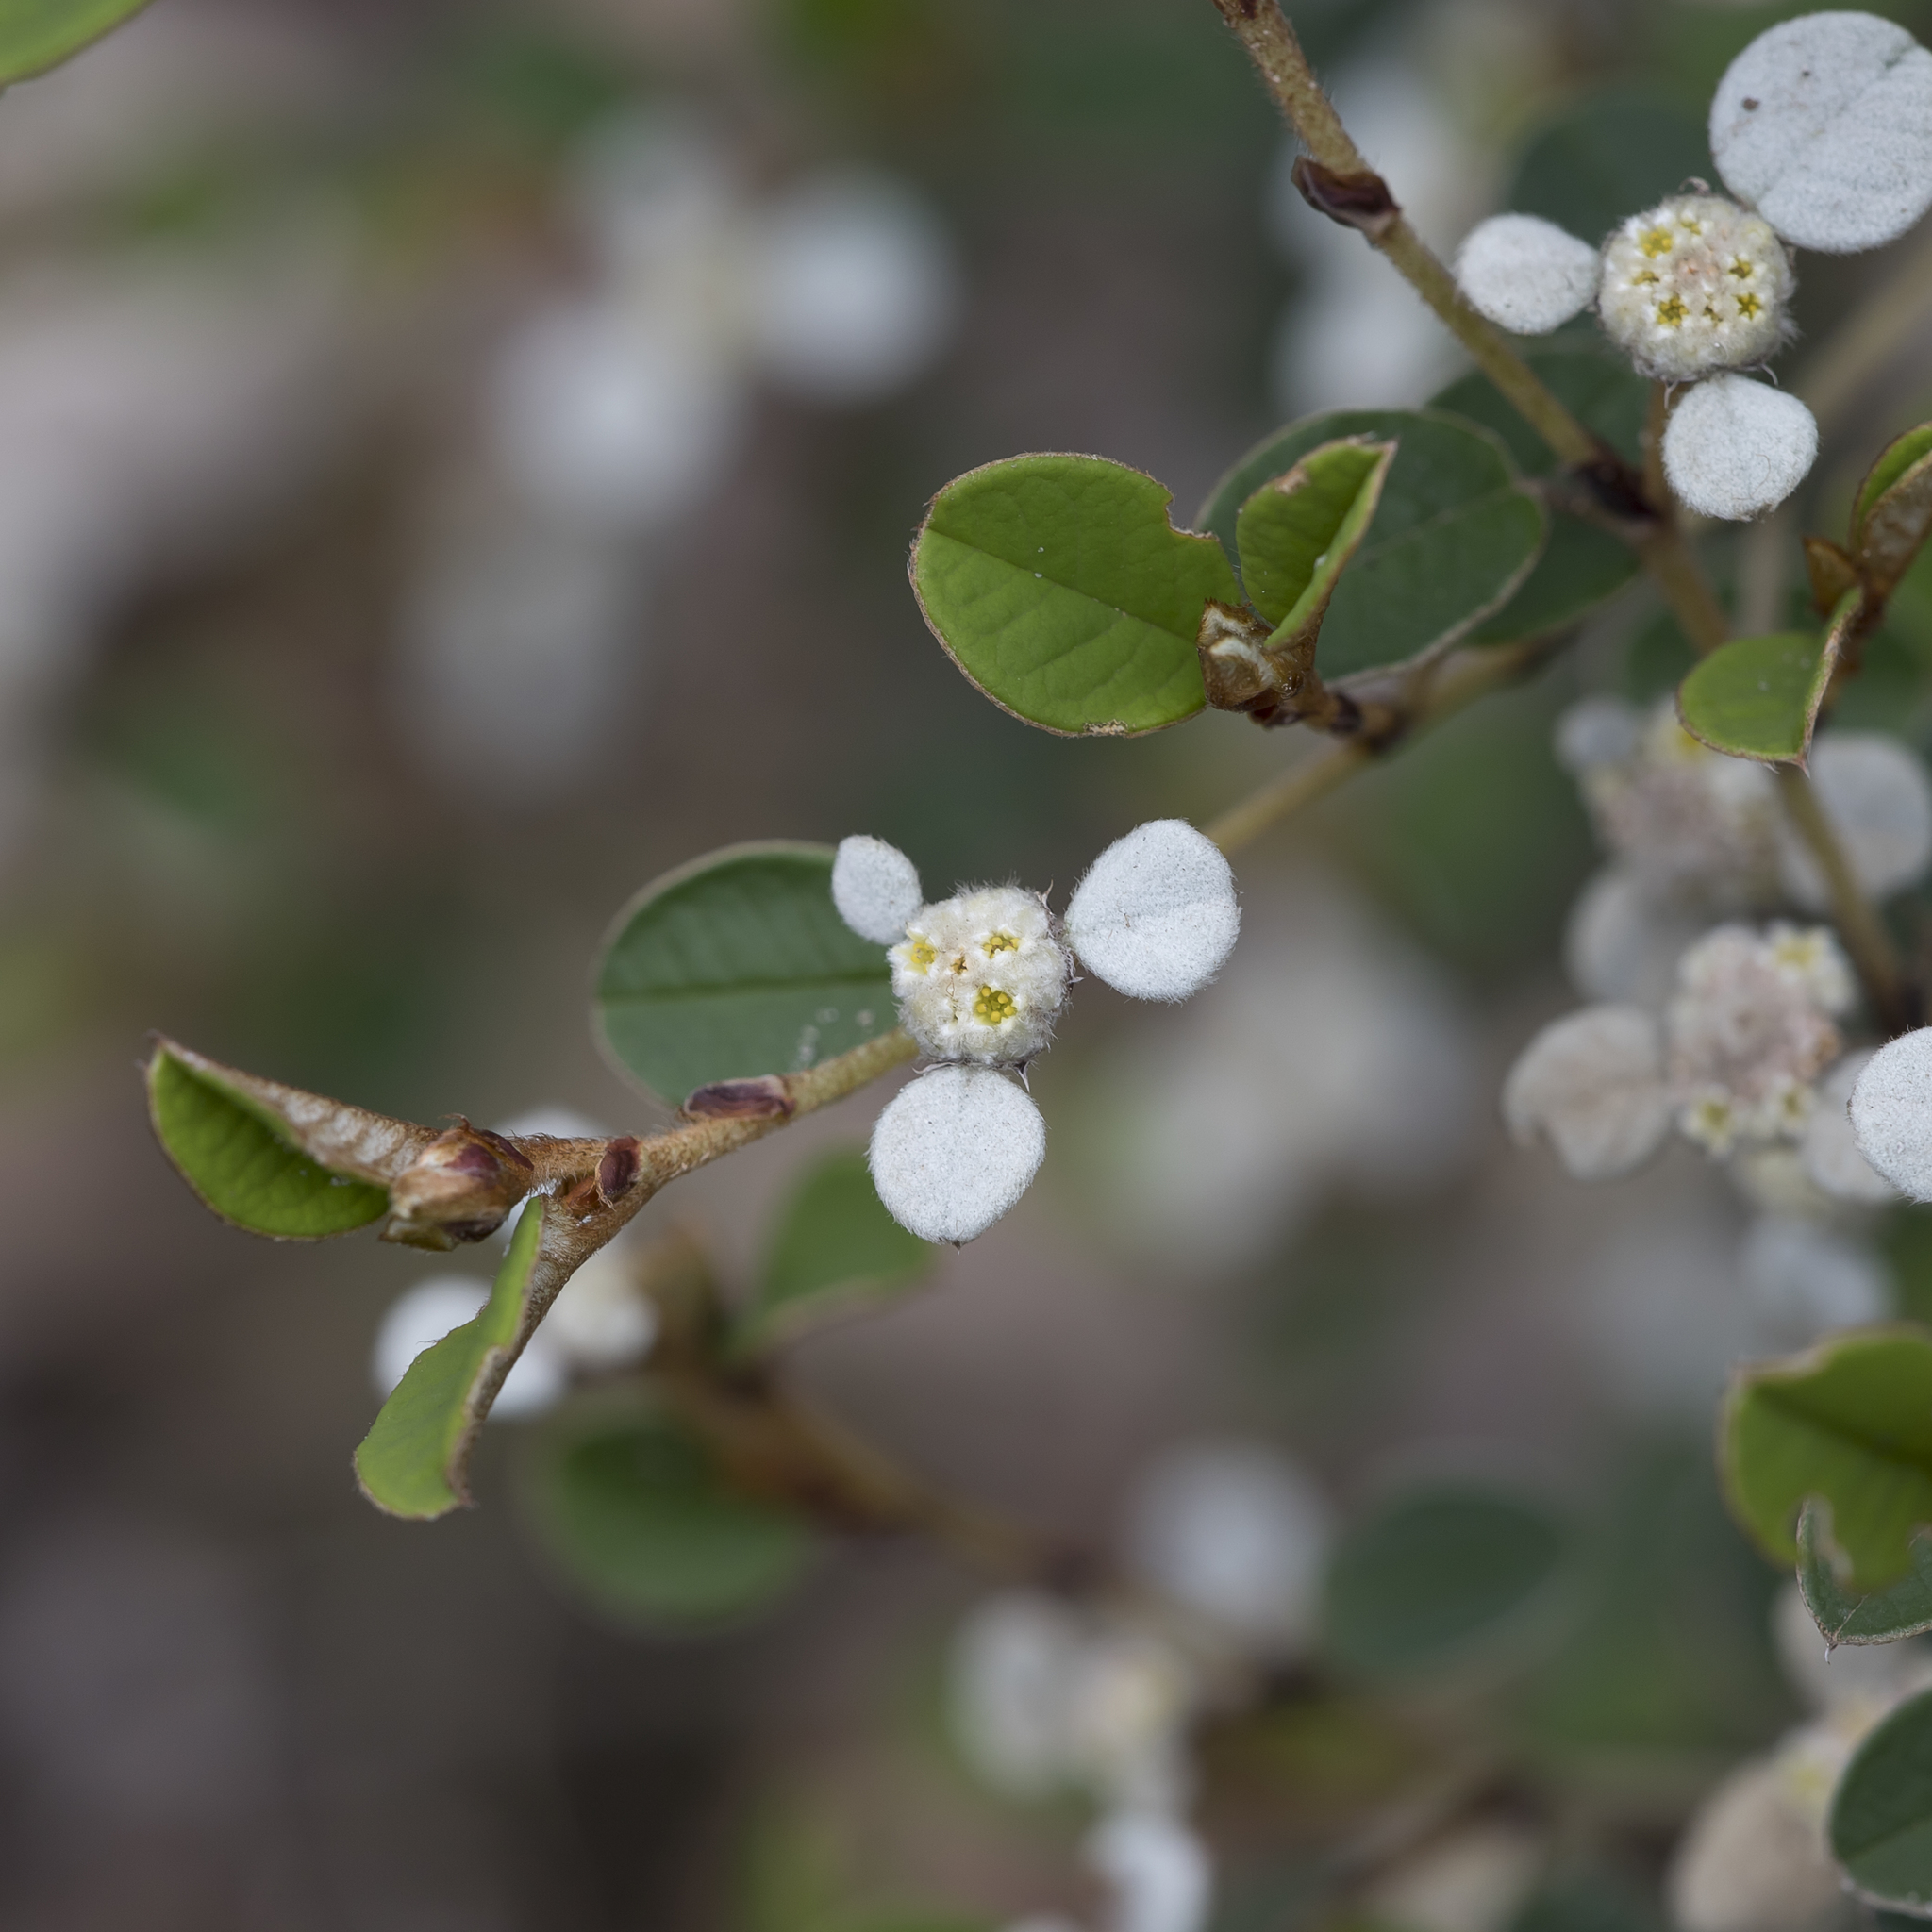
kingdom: Plantae
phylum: Tracheophyta
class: Magnoliopsida
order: Rosales
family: Rhamnaceae
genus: Spyridium
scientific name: Spyridium thymifolium
